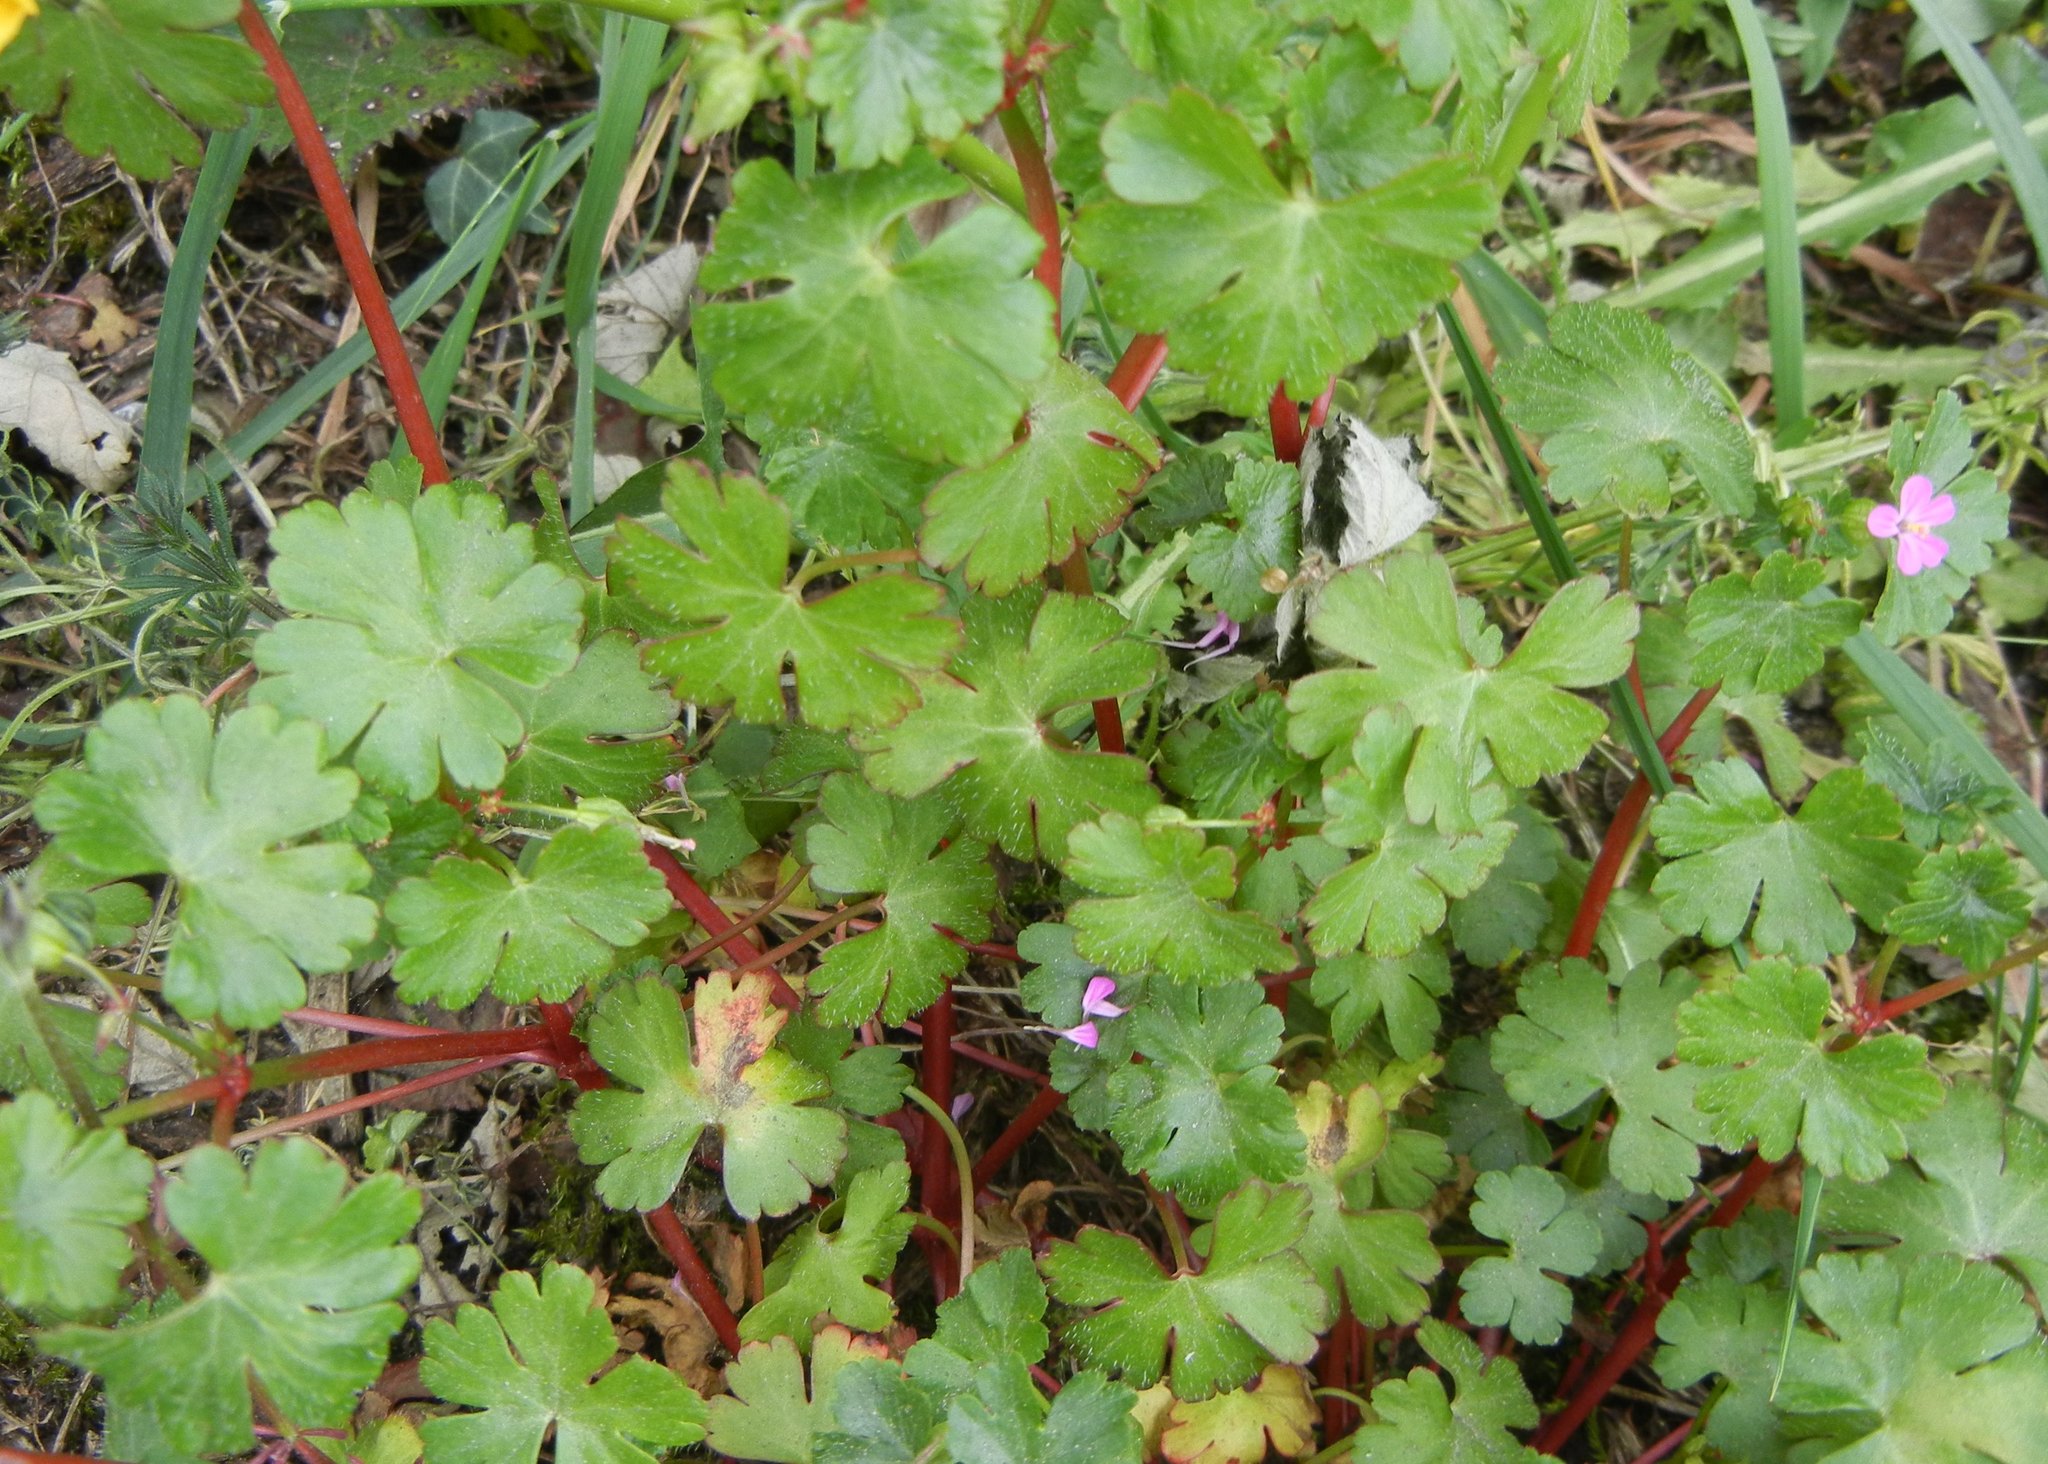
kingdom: Plantae
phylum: Tracheophyta
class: Magnoliopsida
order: Geraniales
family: Geraniaceae
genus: Geranium
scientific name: Geranium lucidum
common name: Shining crane's-bill
